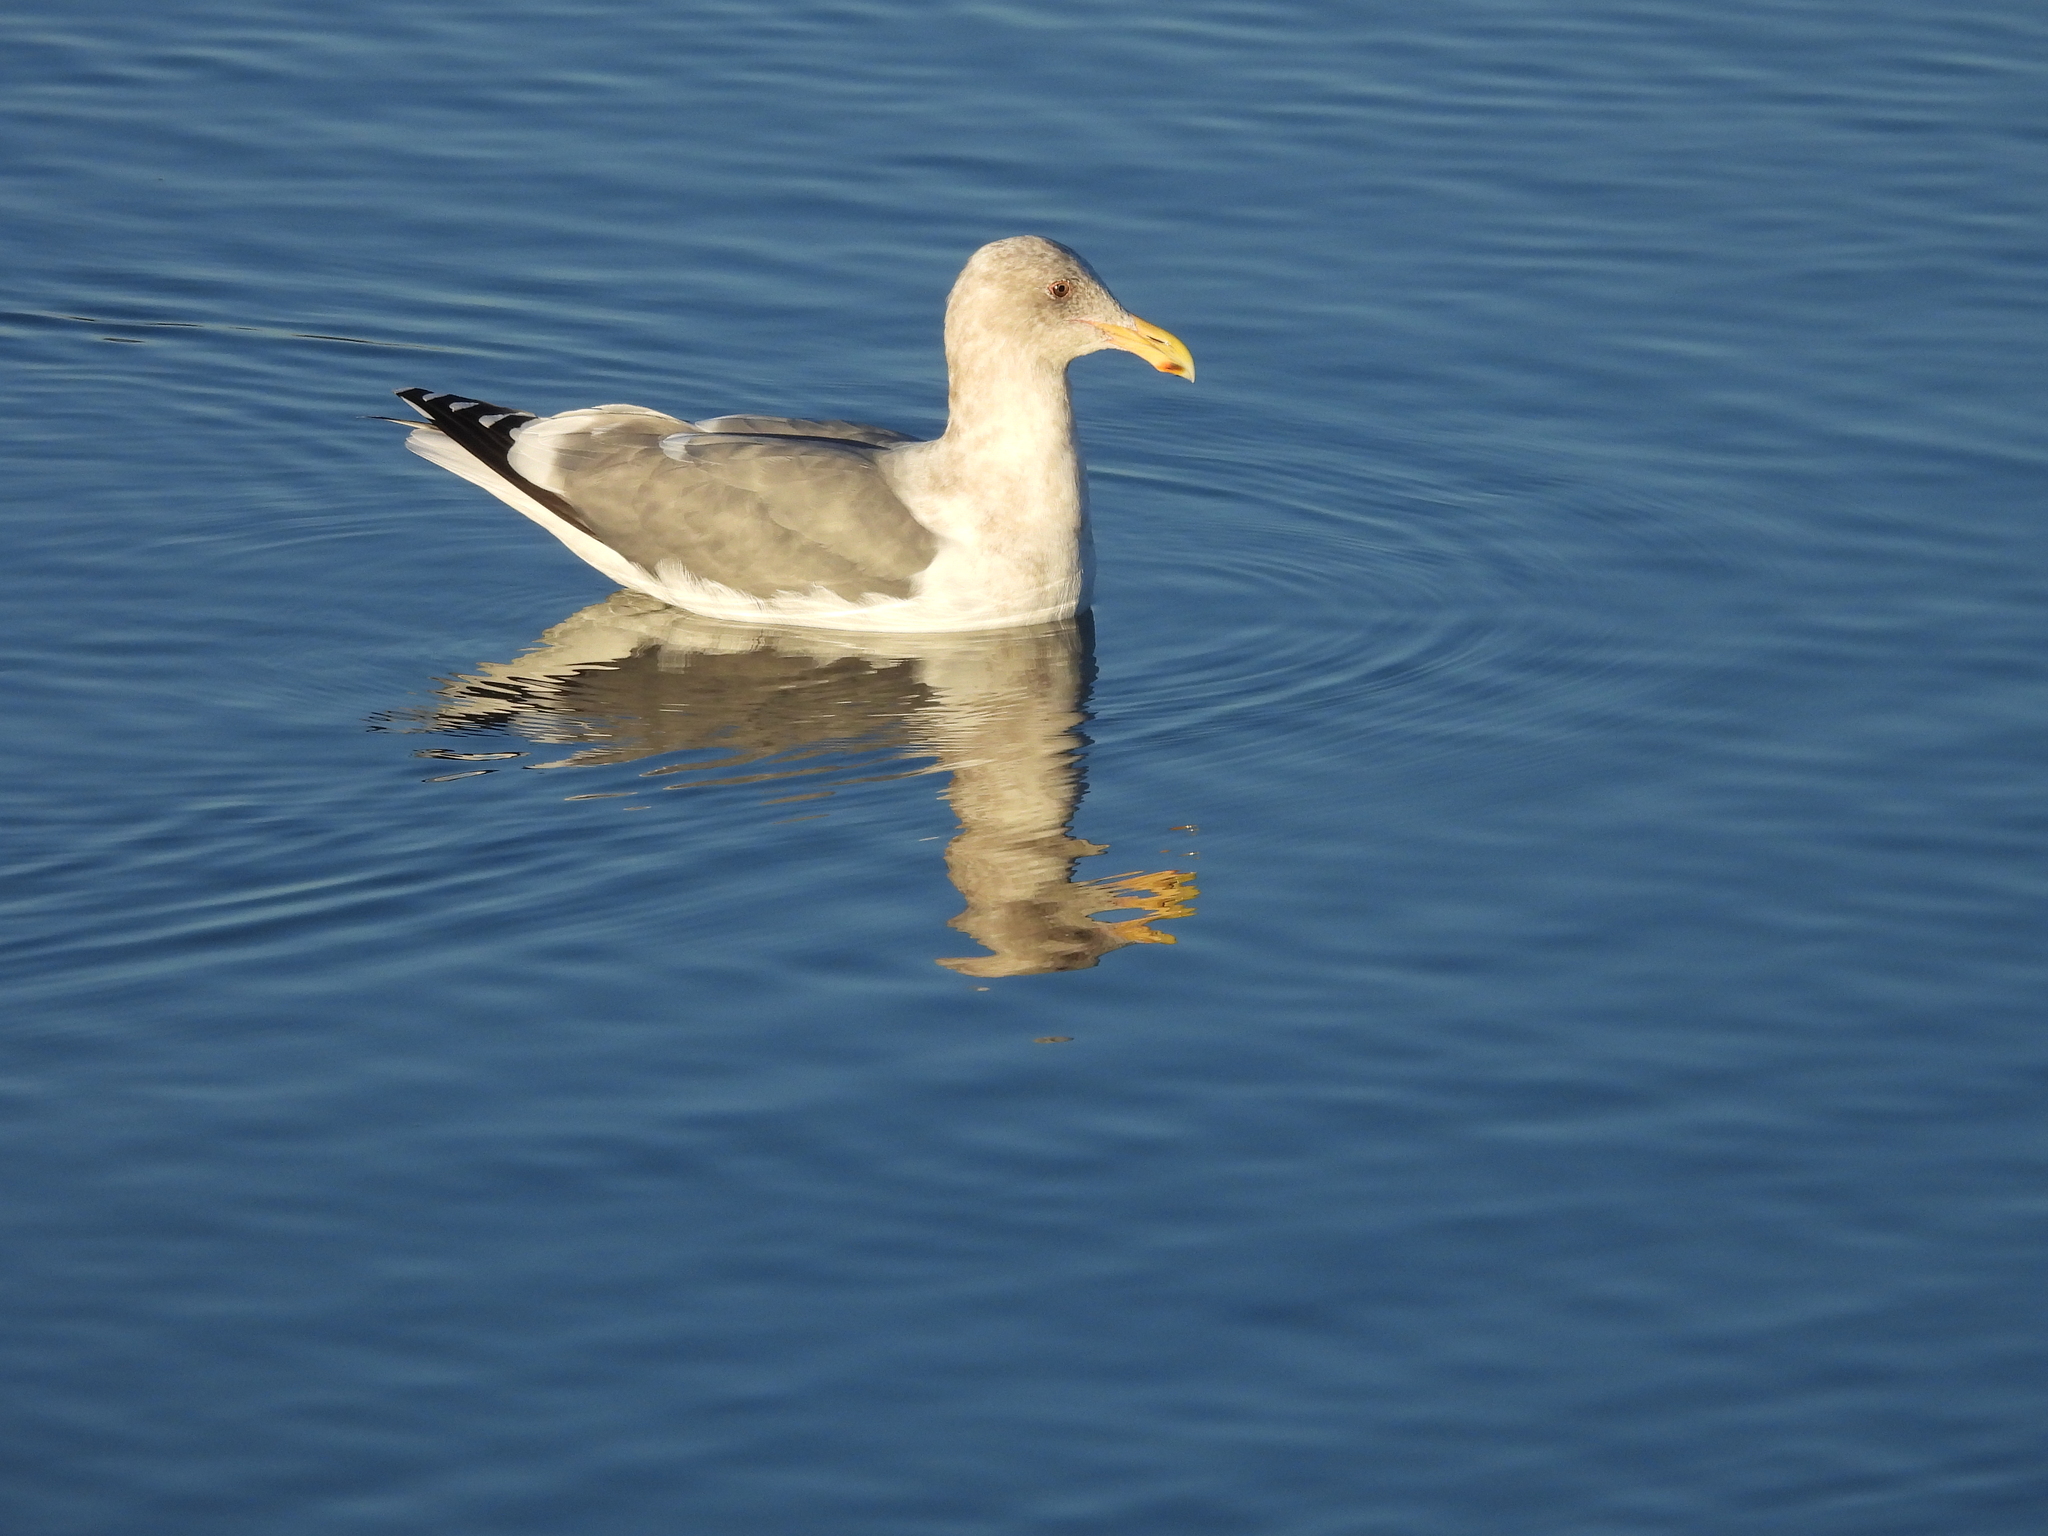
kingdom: Animalia
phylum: Chordata
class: Aves
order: Charadriiformes
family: Laridae
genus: Larus
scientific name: Larus
